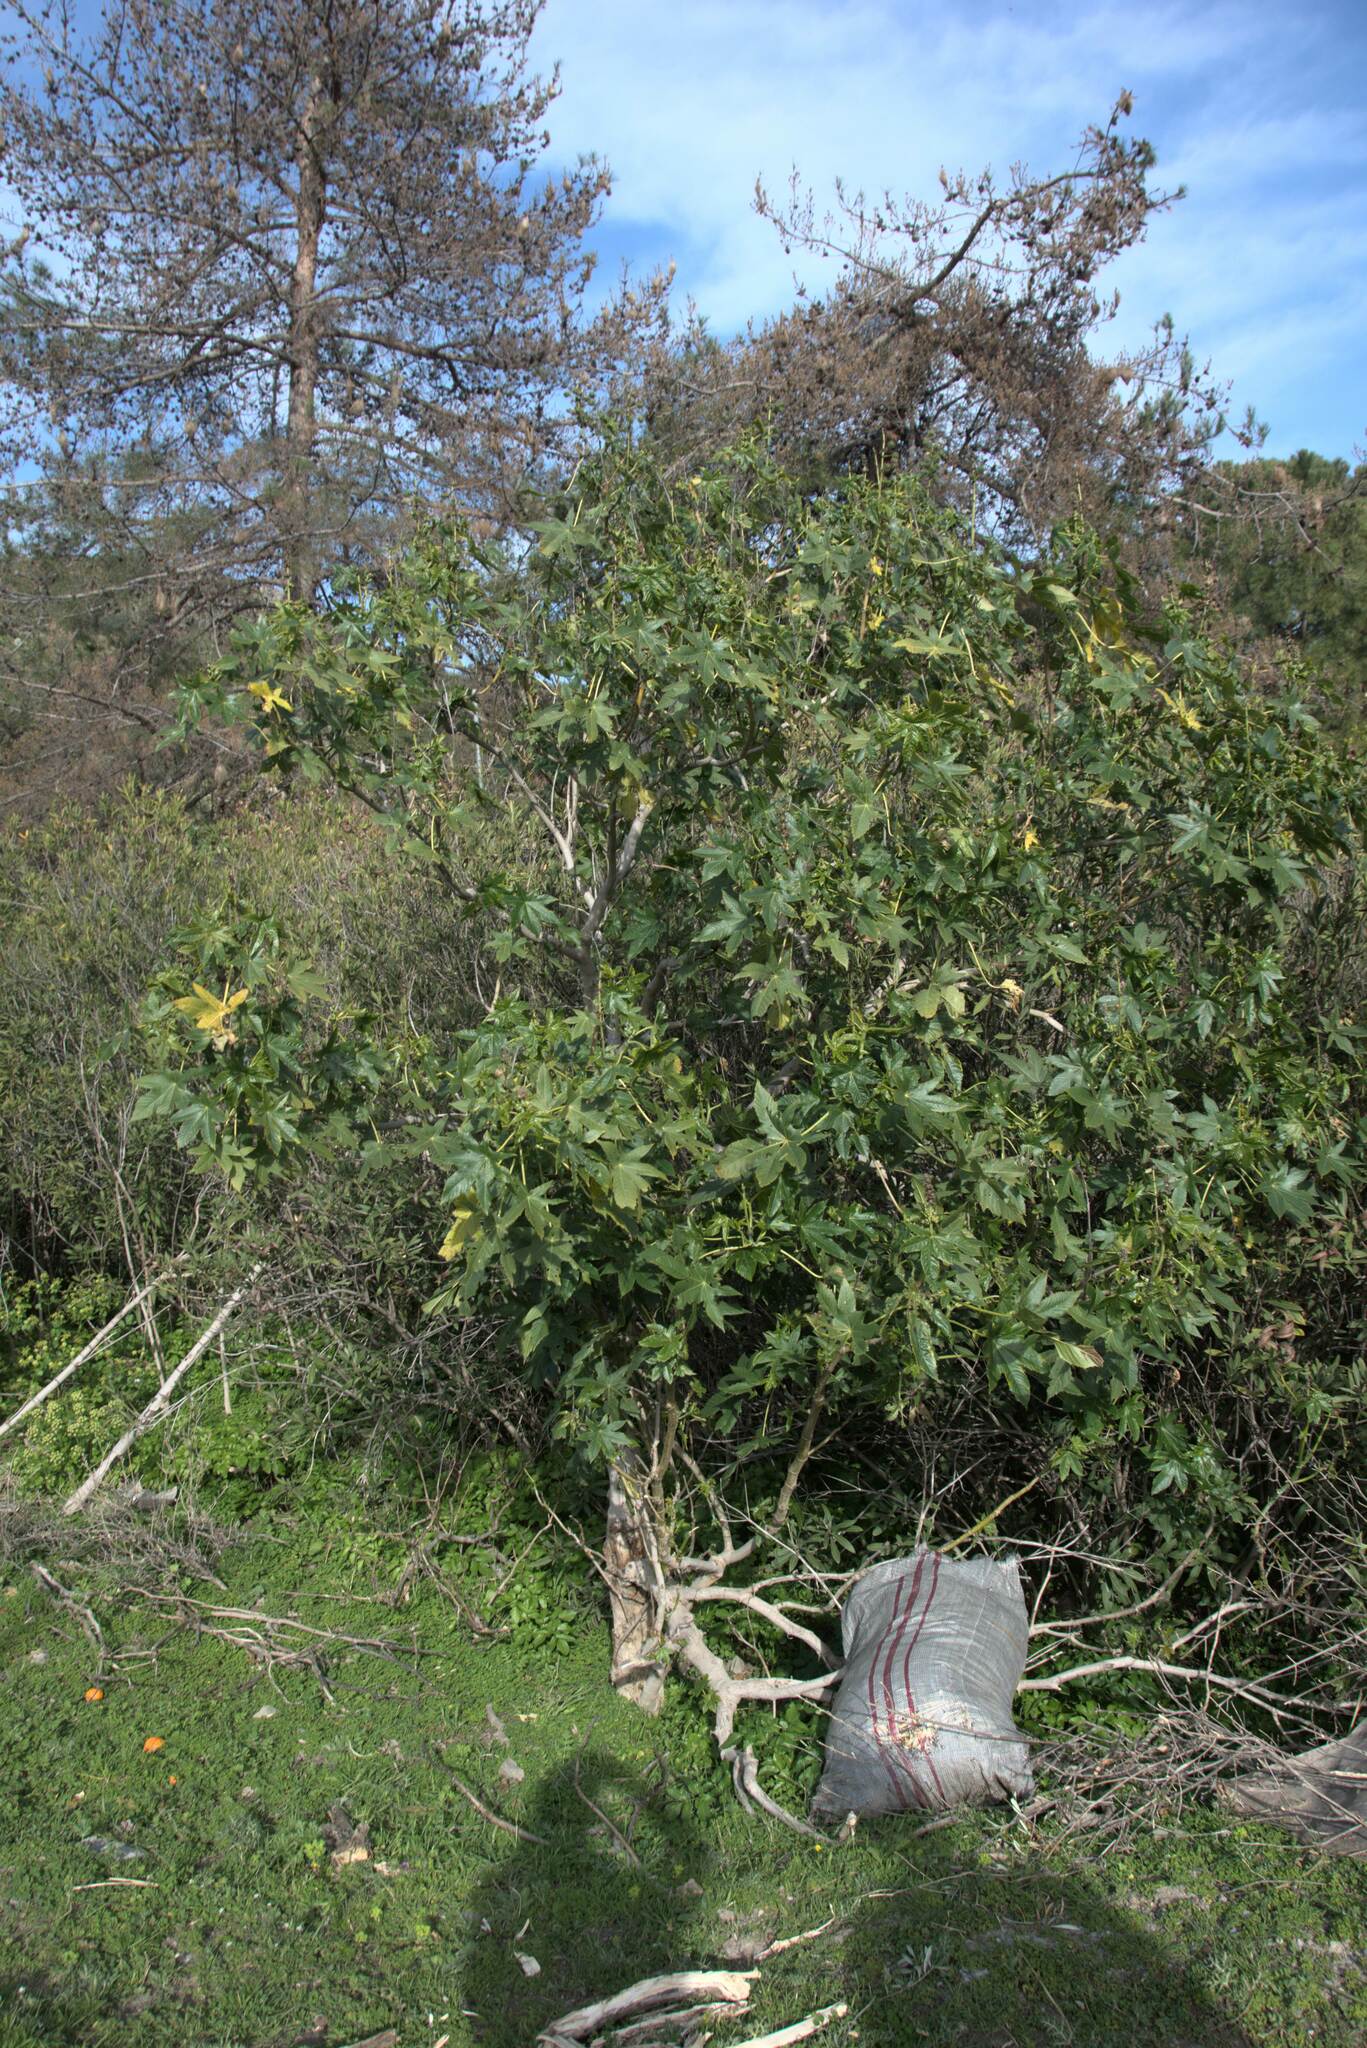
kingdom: Plantae
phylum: Tracheophyta
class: Magnoliopsida
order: Malpighiales
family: Euphorbiaceae
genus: Ricinus
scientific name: Ricinus communis
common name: Castor-oil-plant
